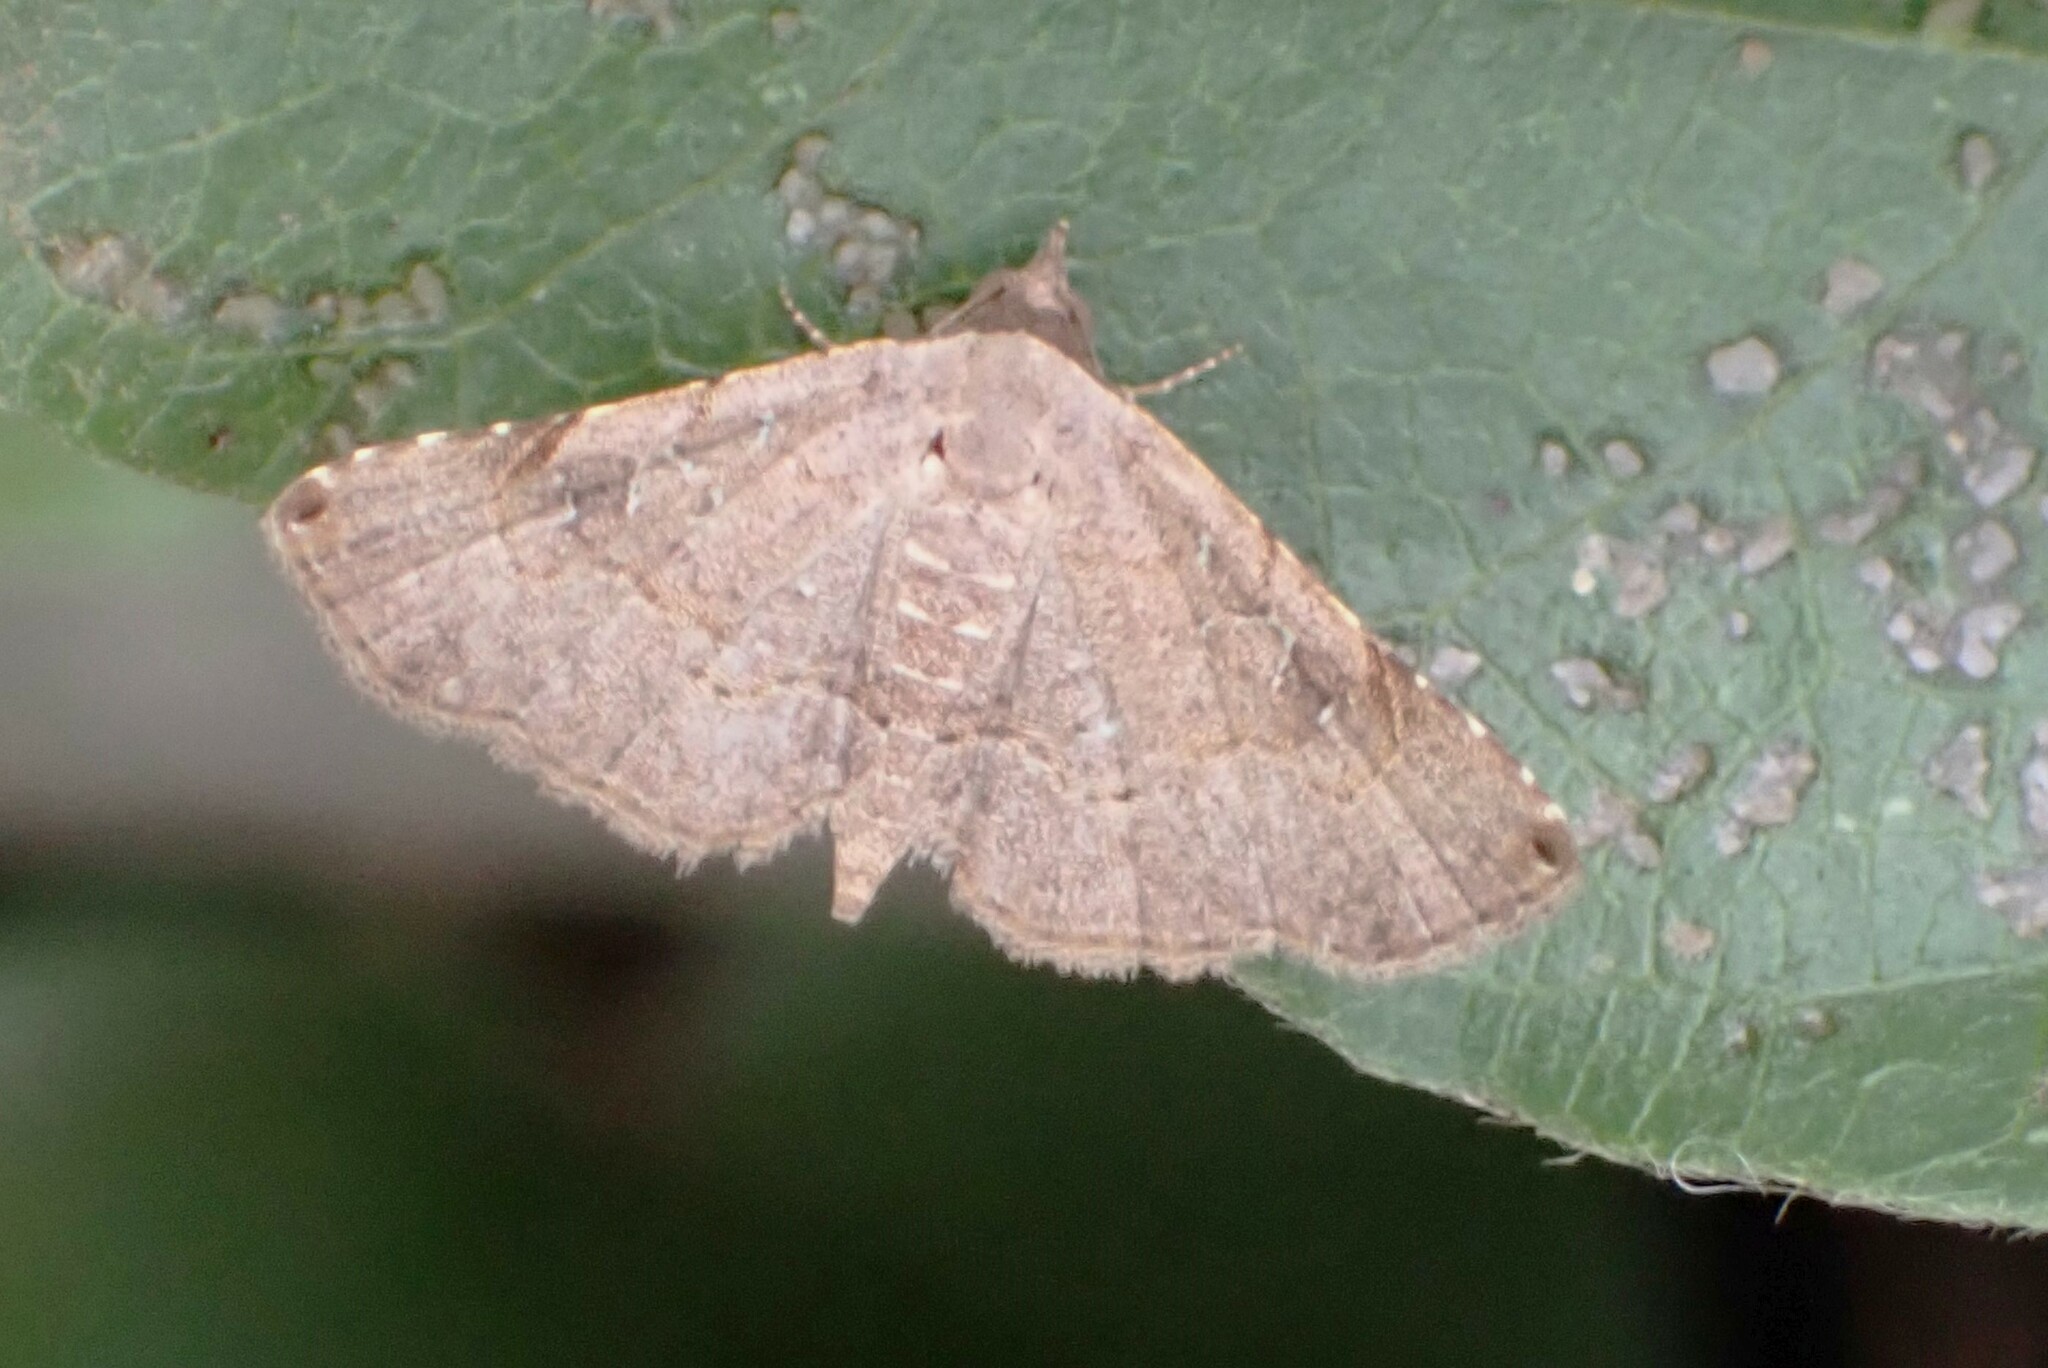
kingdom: Animalia
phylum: Arthropoda
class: Insecta
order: Lepidoptera
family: Erebidae
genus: Rhesala
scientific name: Rhesala moestalis
